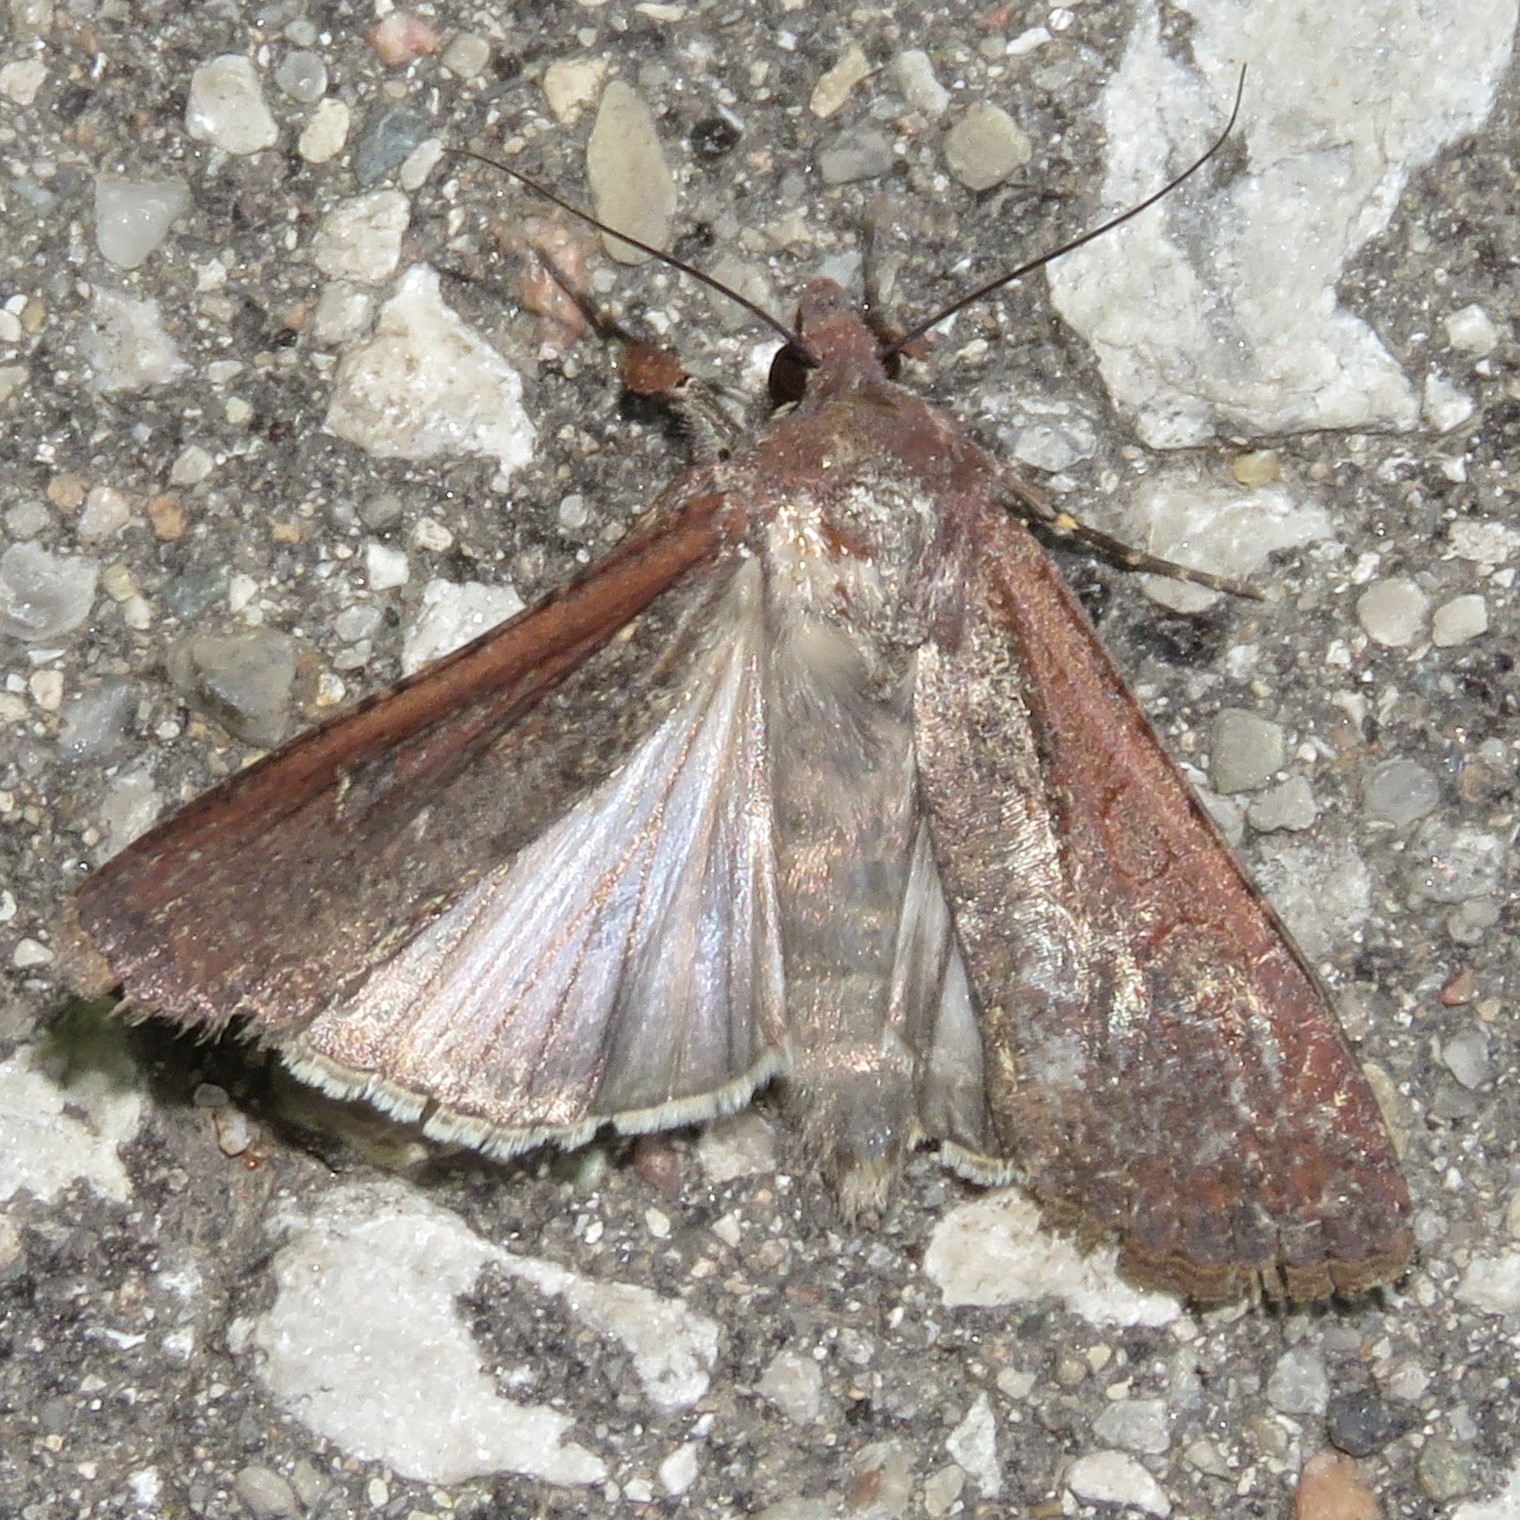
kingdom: Animalia
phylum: Arthropoda
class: Insecta
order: Lepidoptera
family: Noctuidae
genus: Euxoa
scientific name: Euxoa ochrogaster
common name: Red-backed cutworm moth
